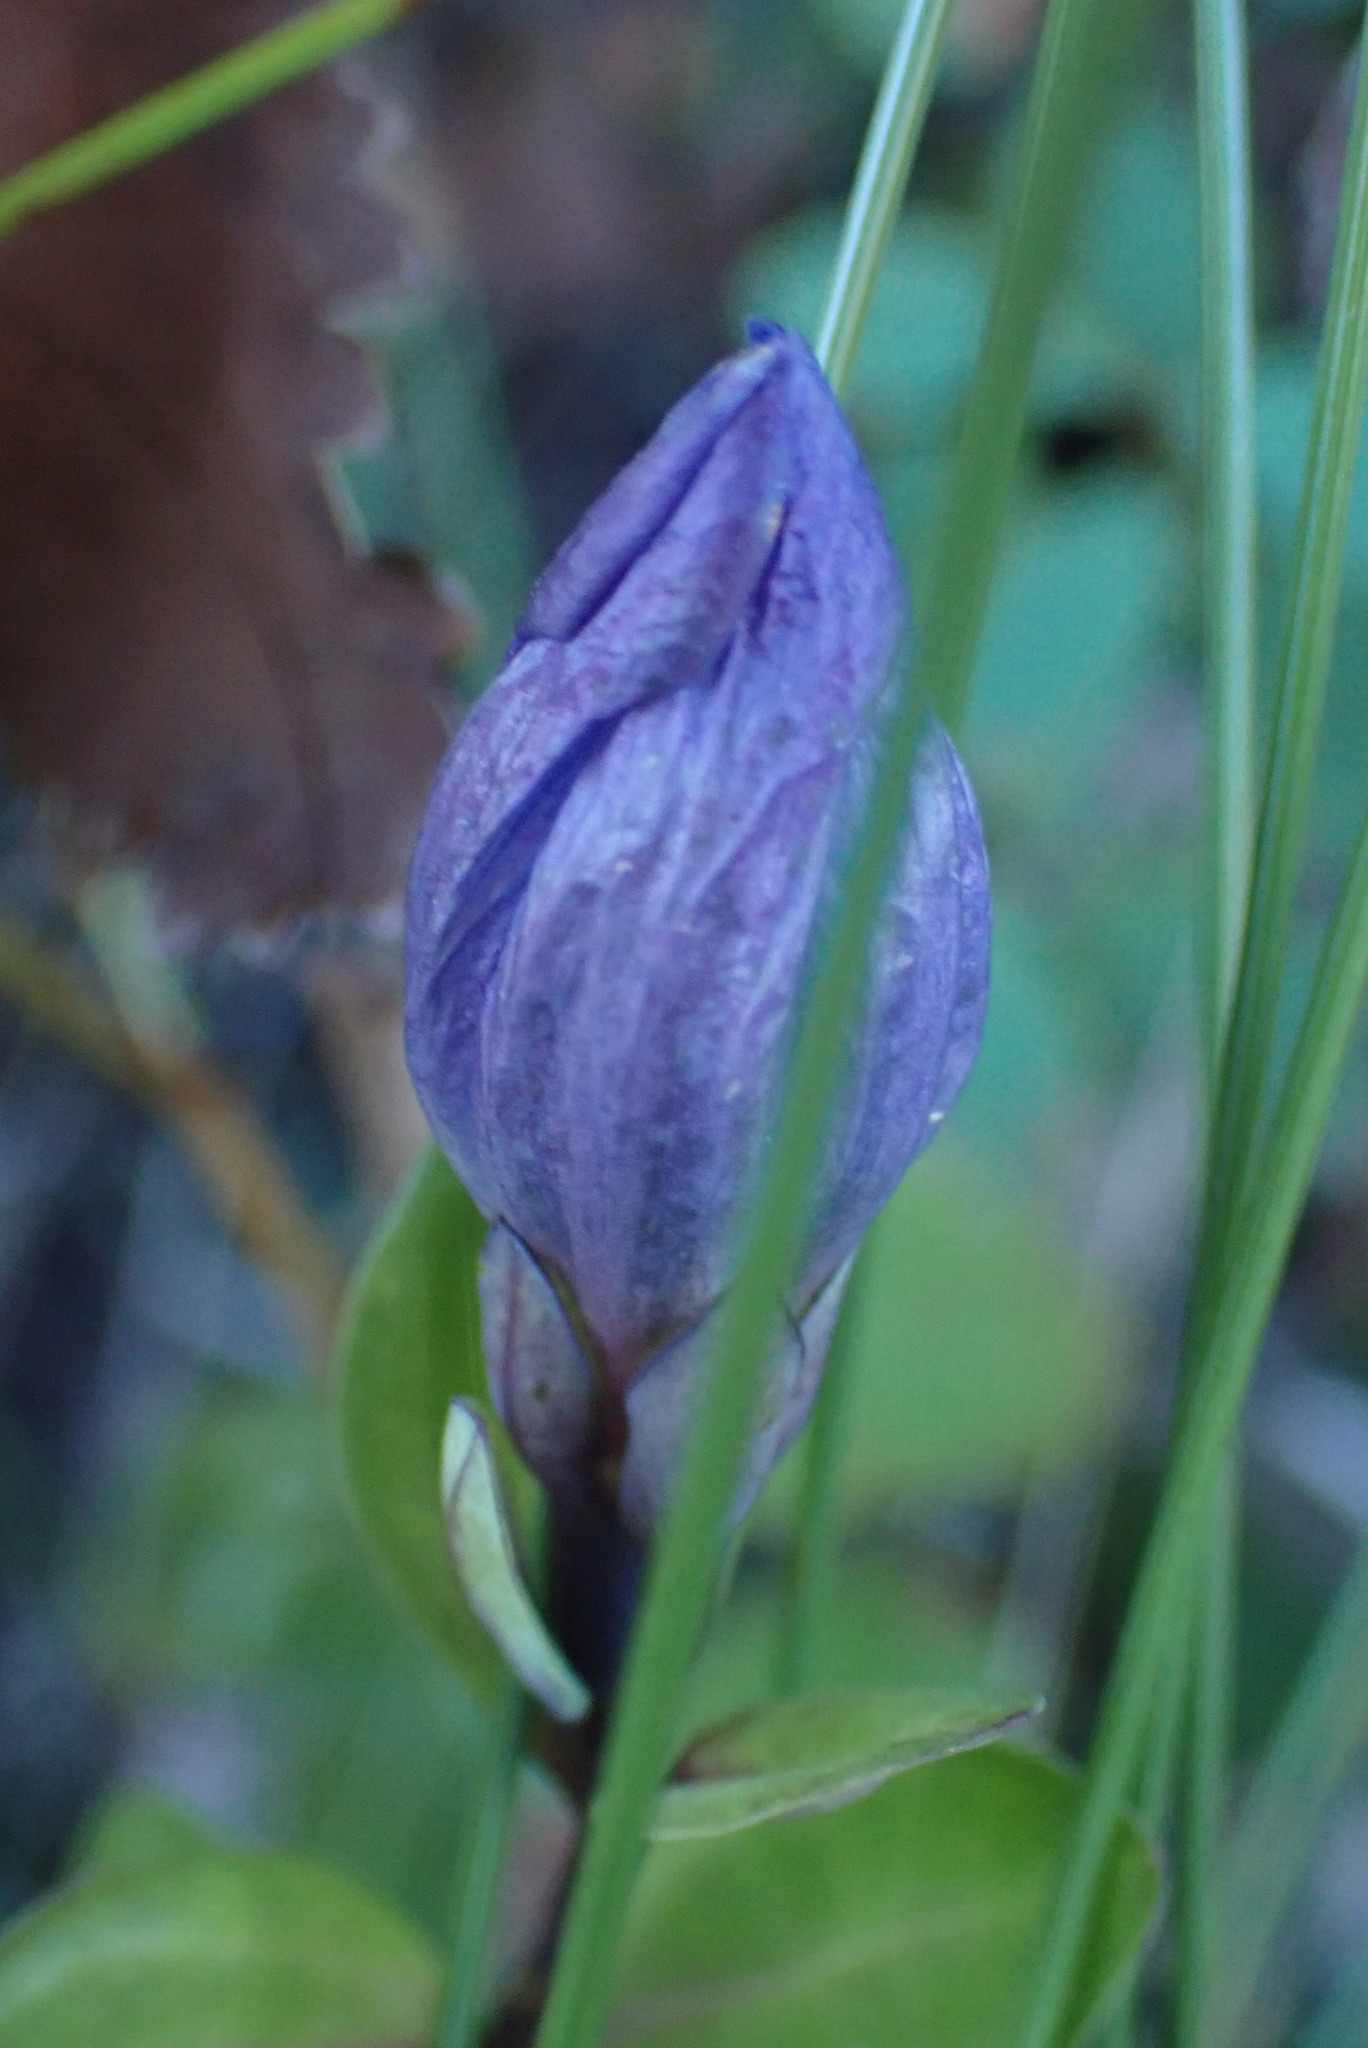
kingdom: Plantae
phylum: Tracheophyta
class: Magnoliopsida
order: Gentianales
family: Gentianaceae
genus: Gentiana
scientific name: Gentiana sceptrum
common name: Pacific gentian
